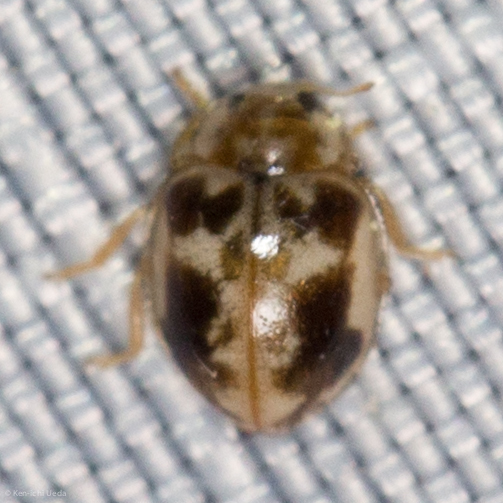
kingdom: Animalia
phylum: Arthropoda
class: Insecta
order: Coleoptera
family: Coccinellidae
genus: Psyllobora
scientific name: Psyllobora renifer
